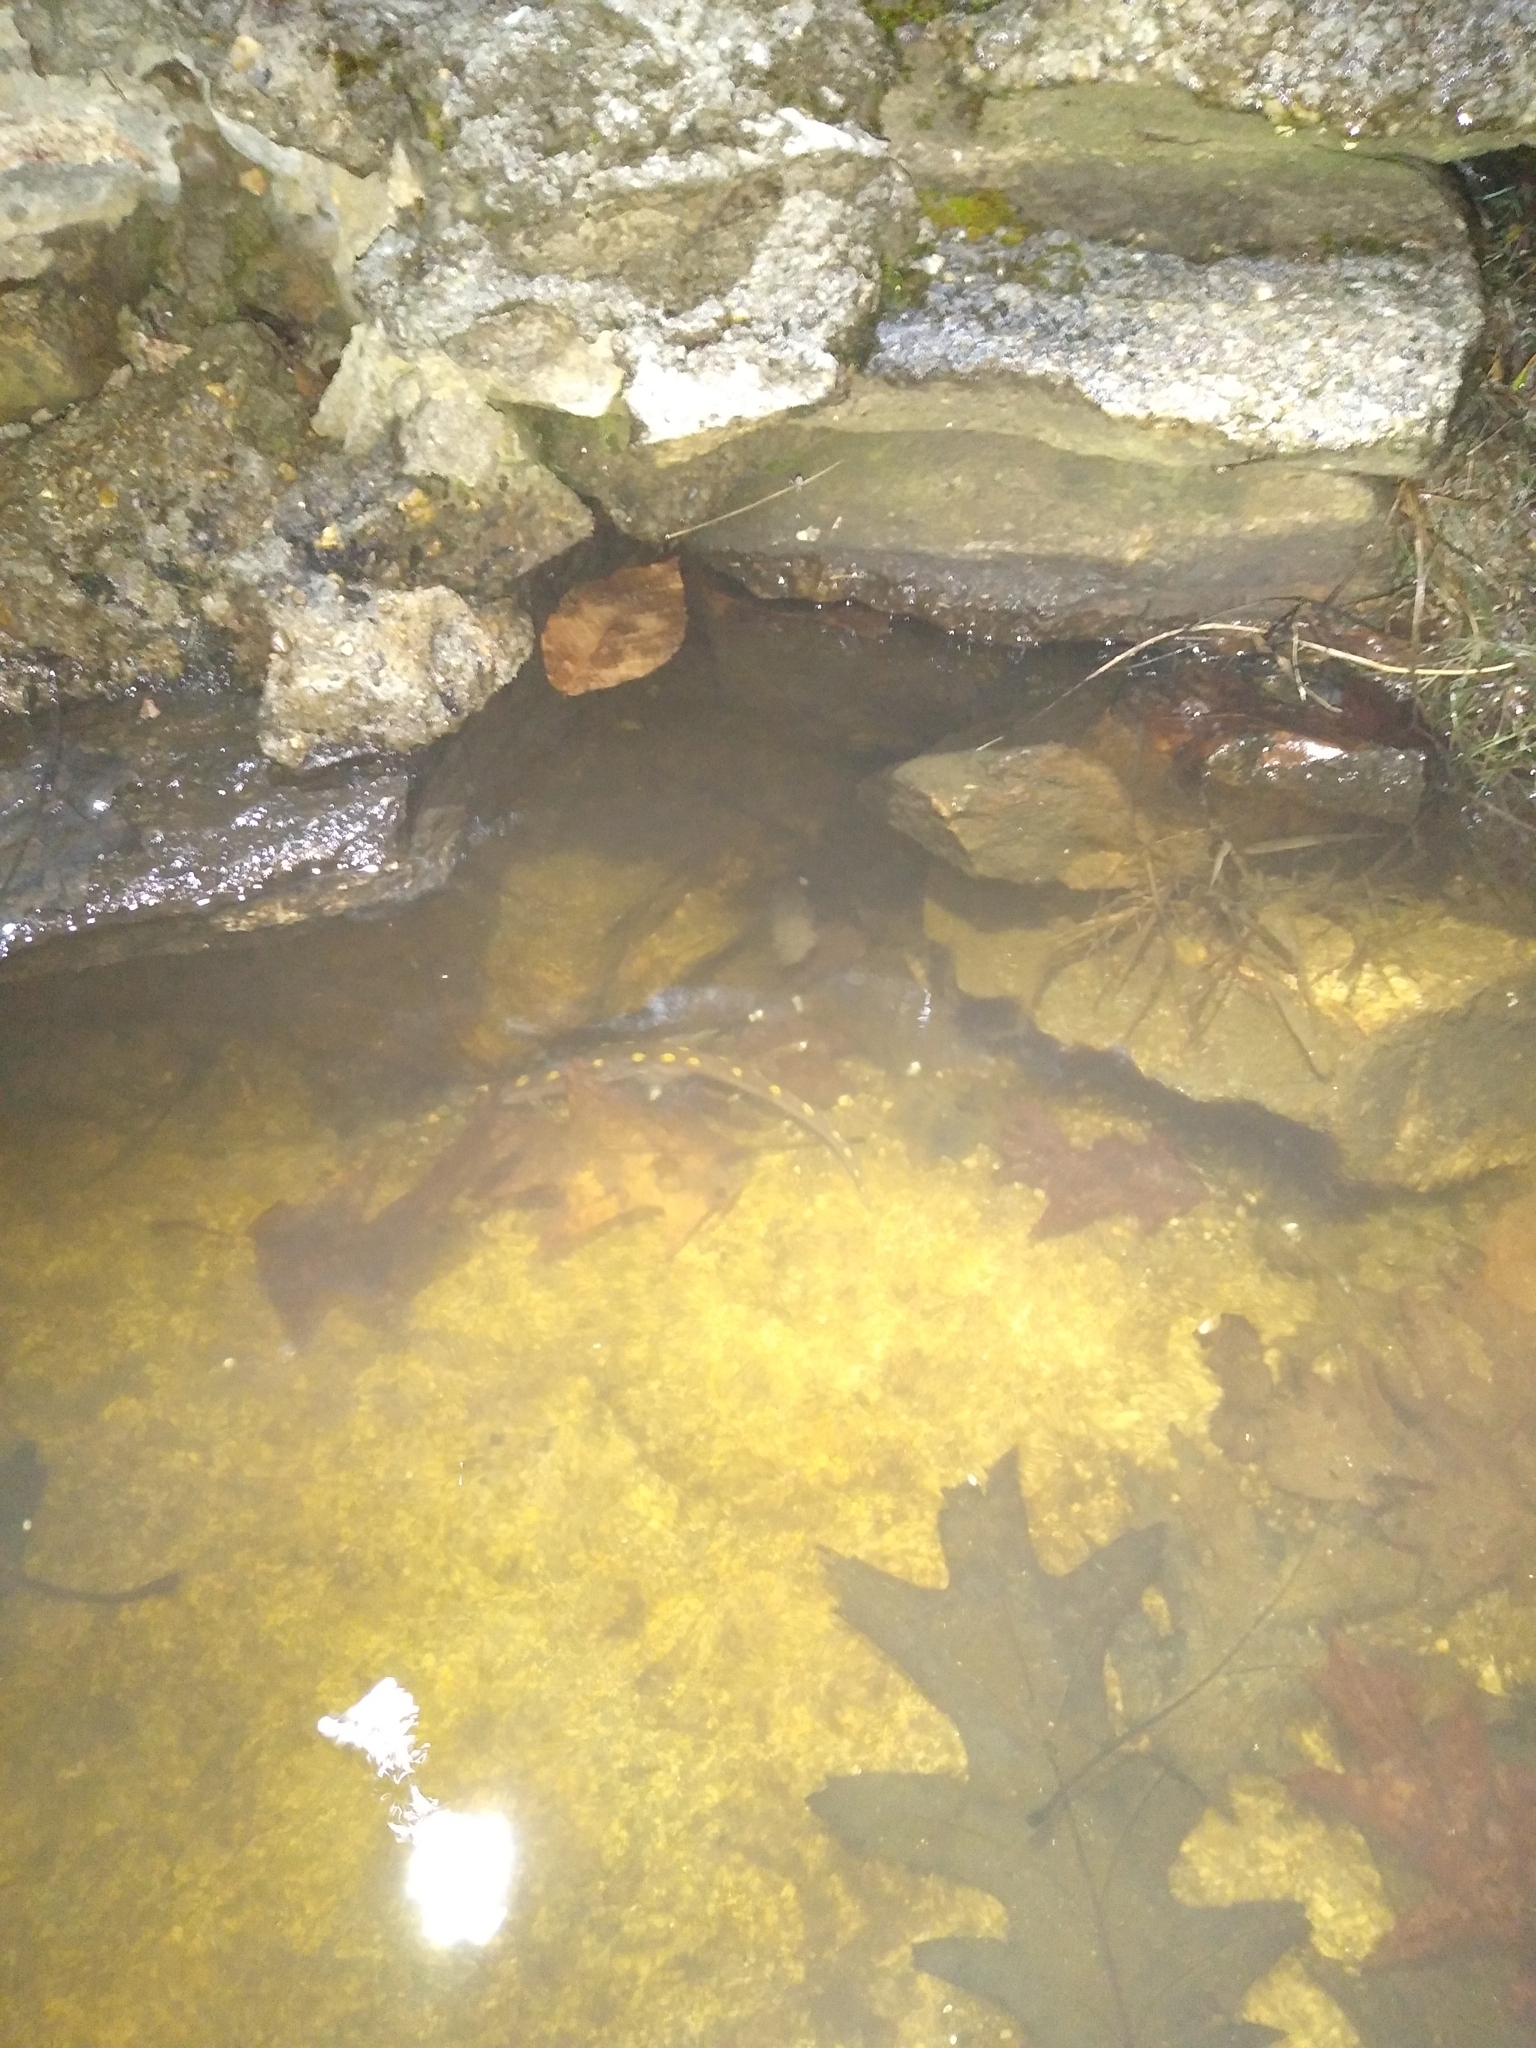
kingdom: Animalia
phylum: Chordata
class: Amphibia
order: Caudata
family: Ambystomatidae
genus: Ambystoma
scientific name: Ambystoma maculatum
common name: Spotted salamander
